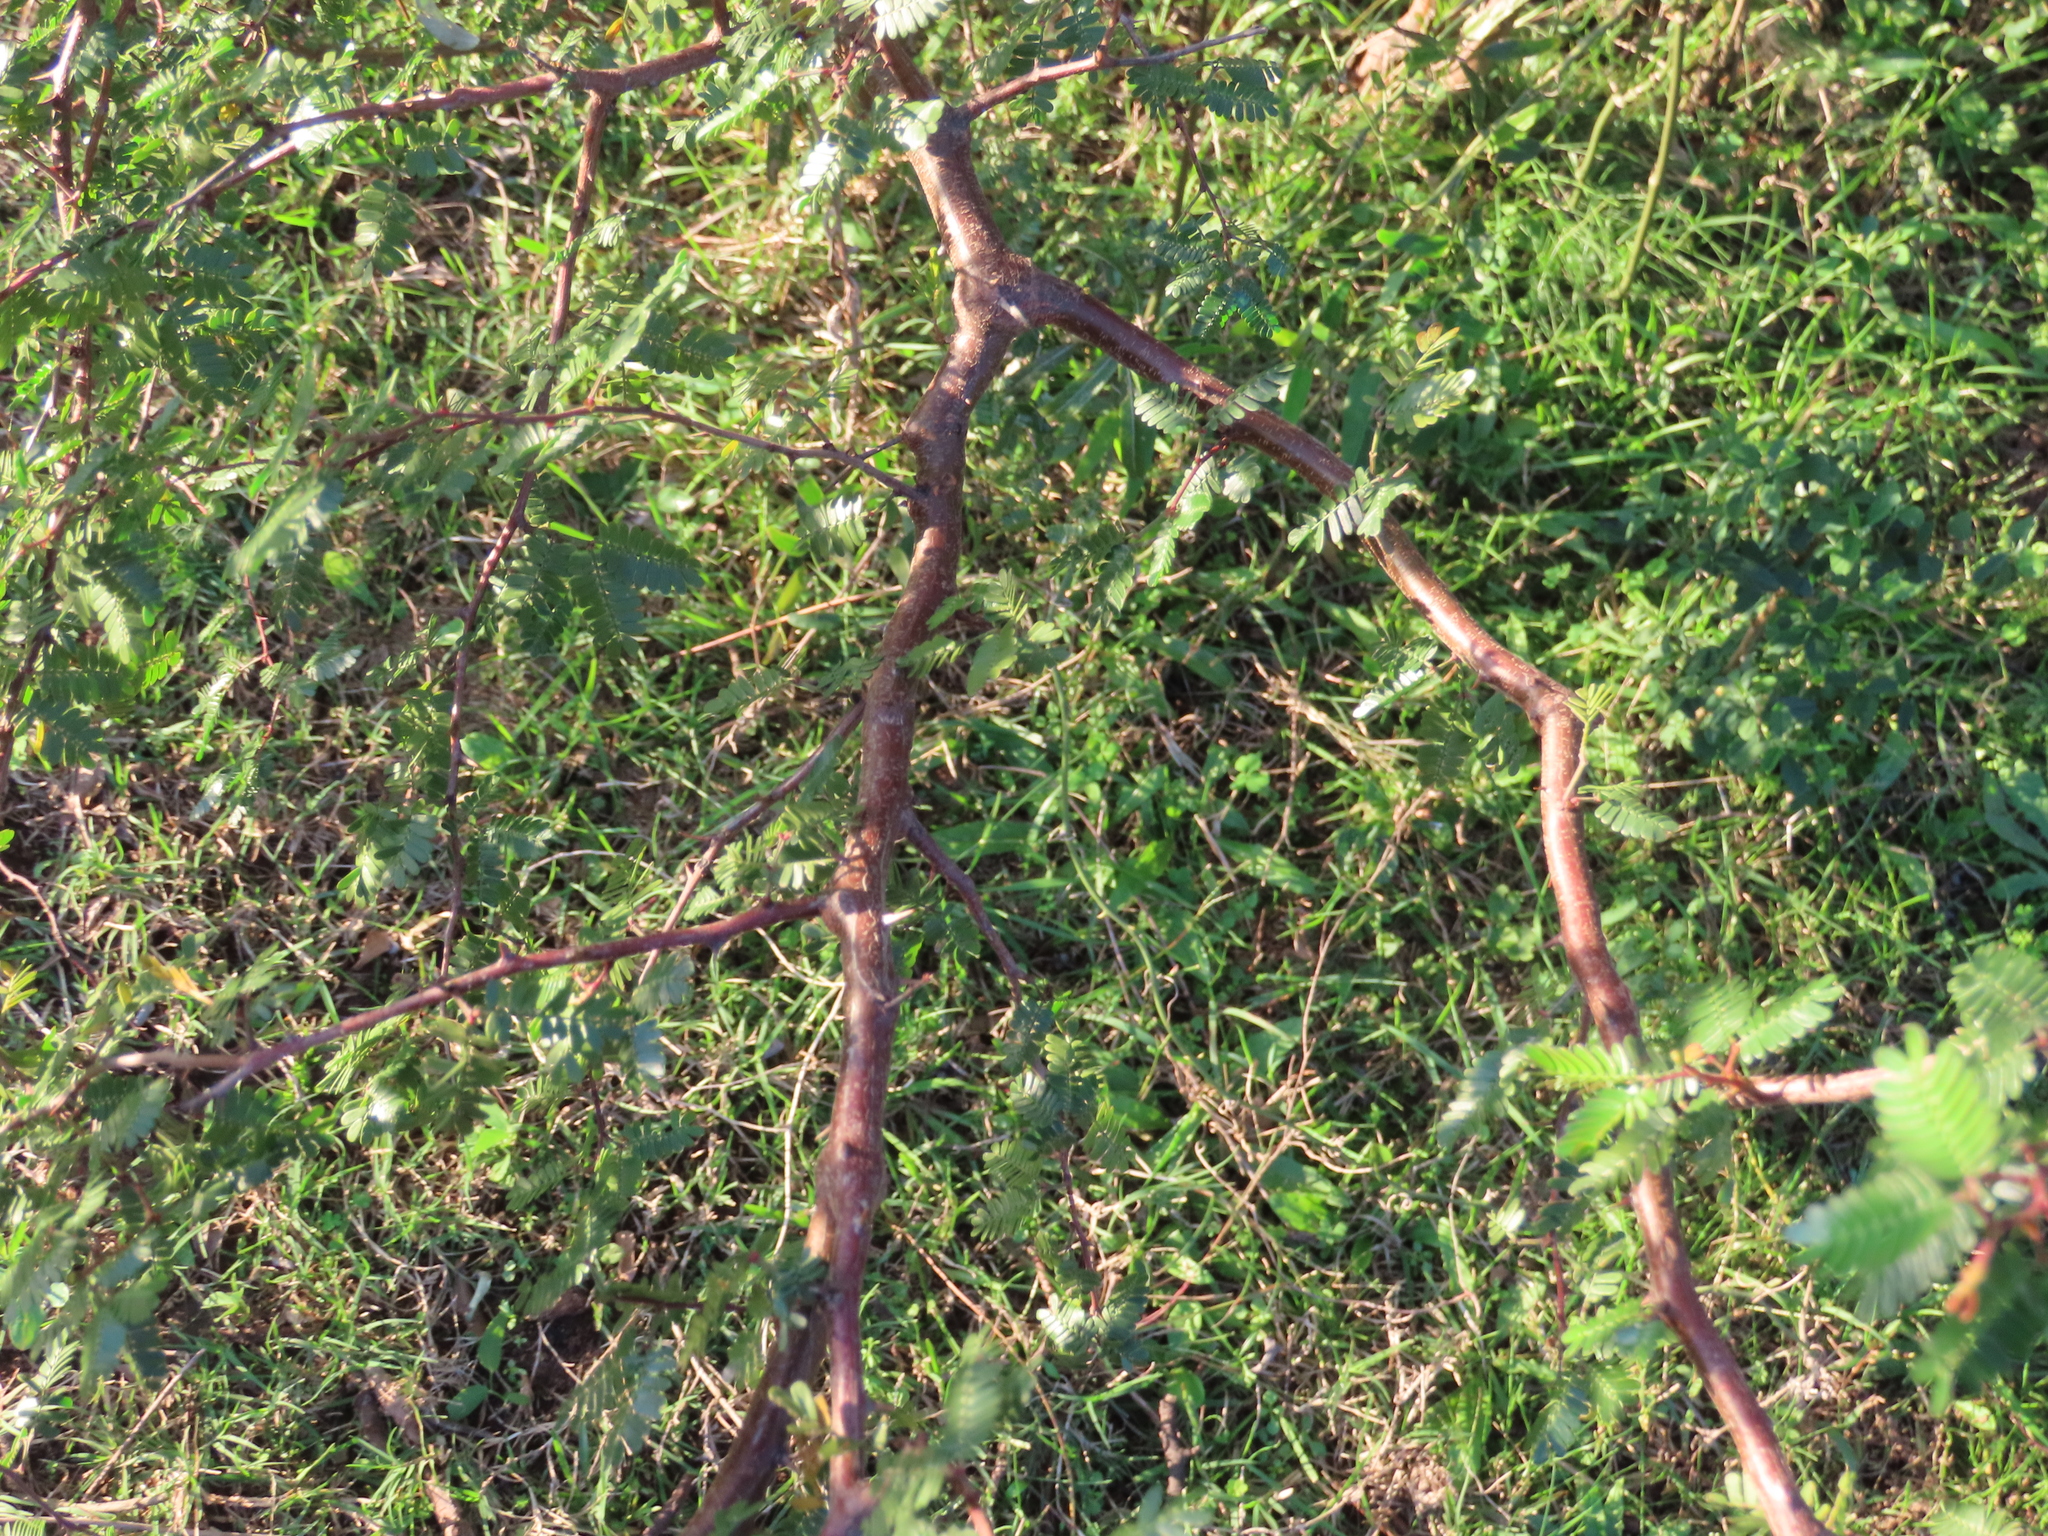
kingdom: Plantae
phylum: Tracheophyta
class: Magnoliopsida
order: Fabales
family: Fabaceae
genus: Mimosa
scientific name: Mimosa uraguensis
